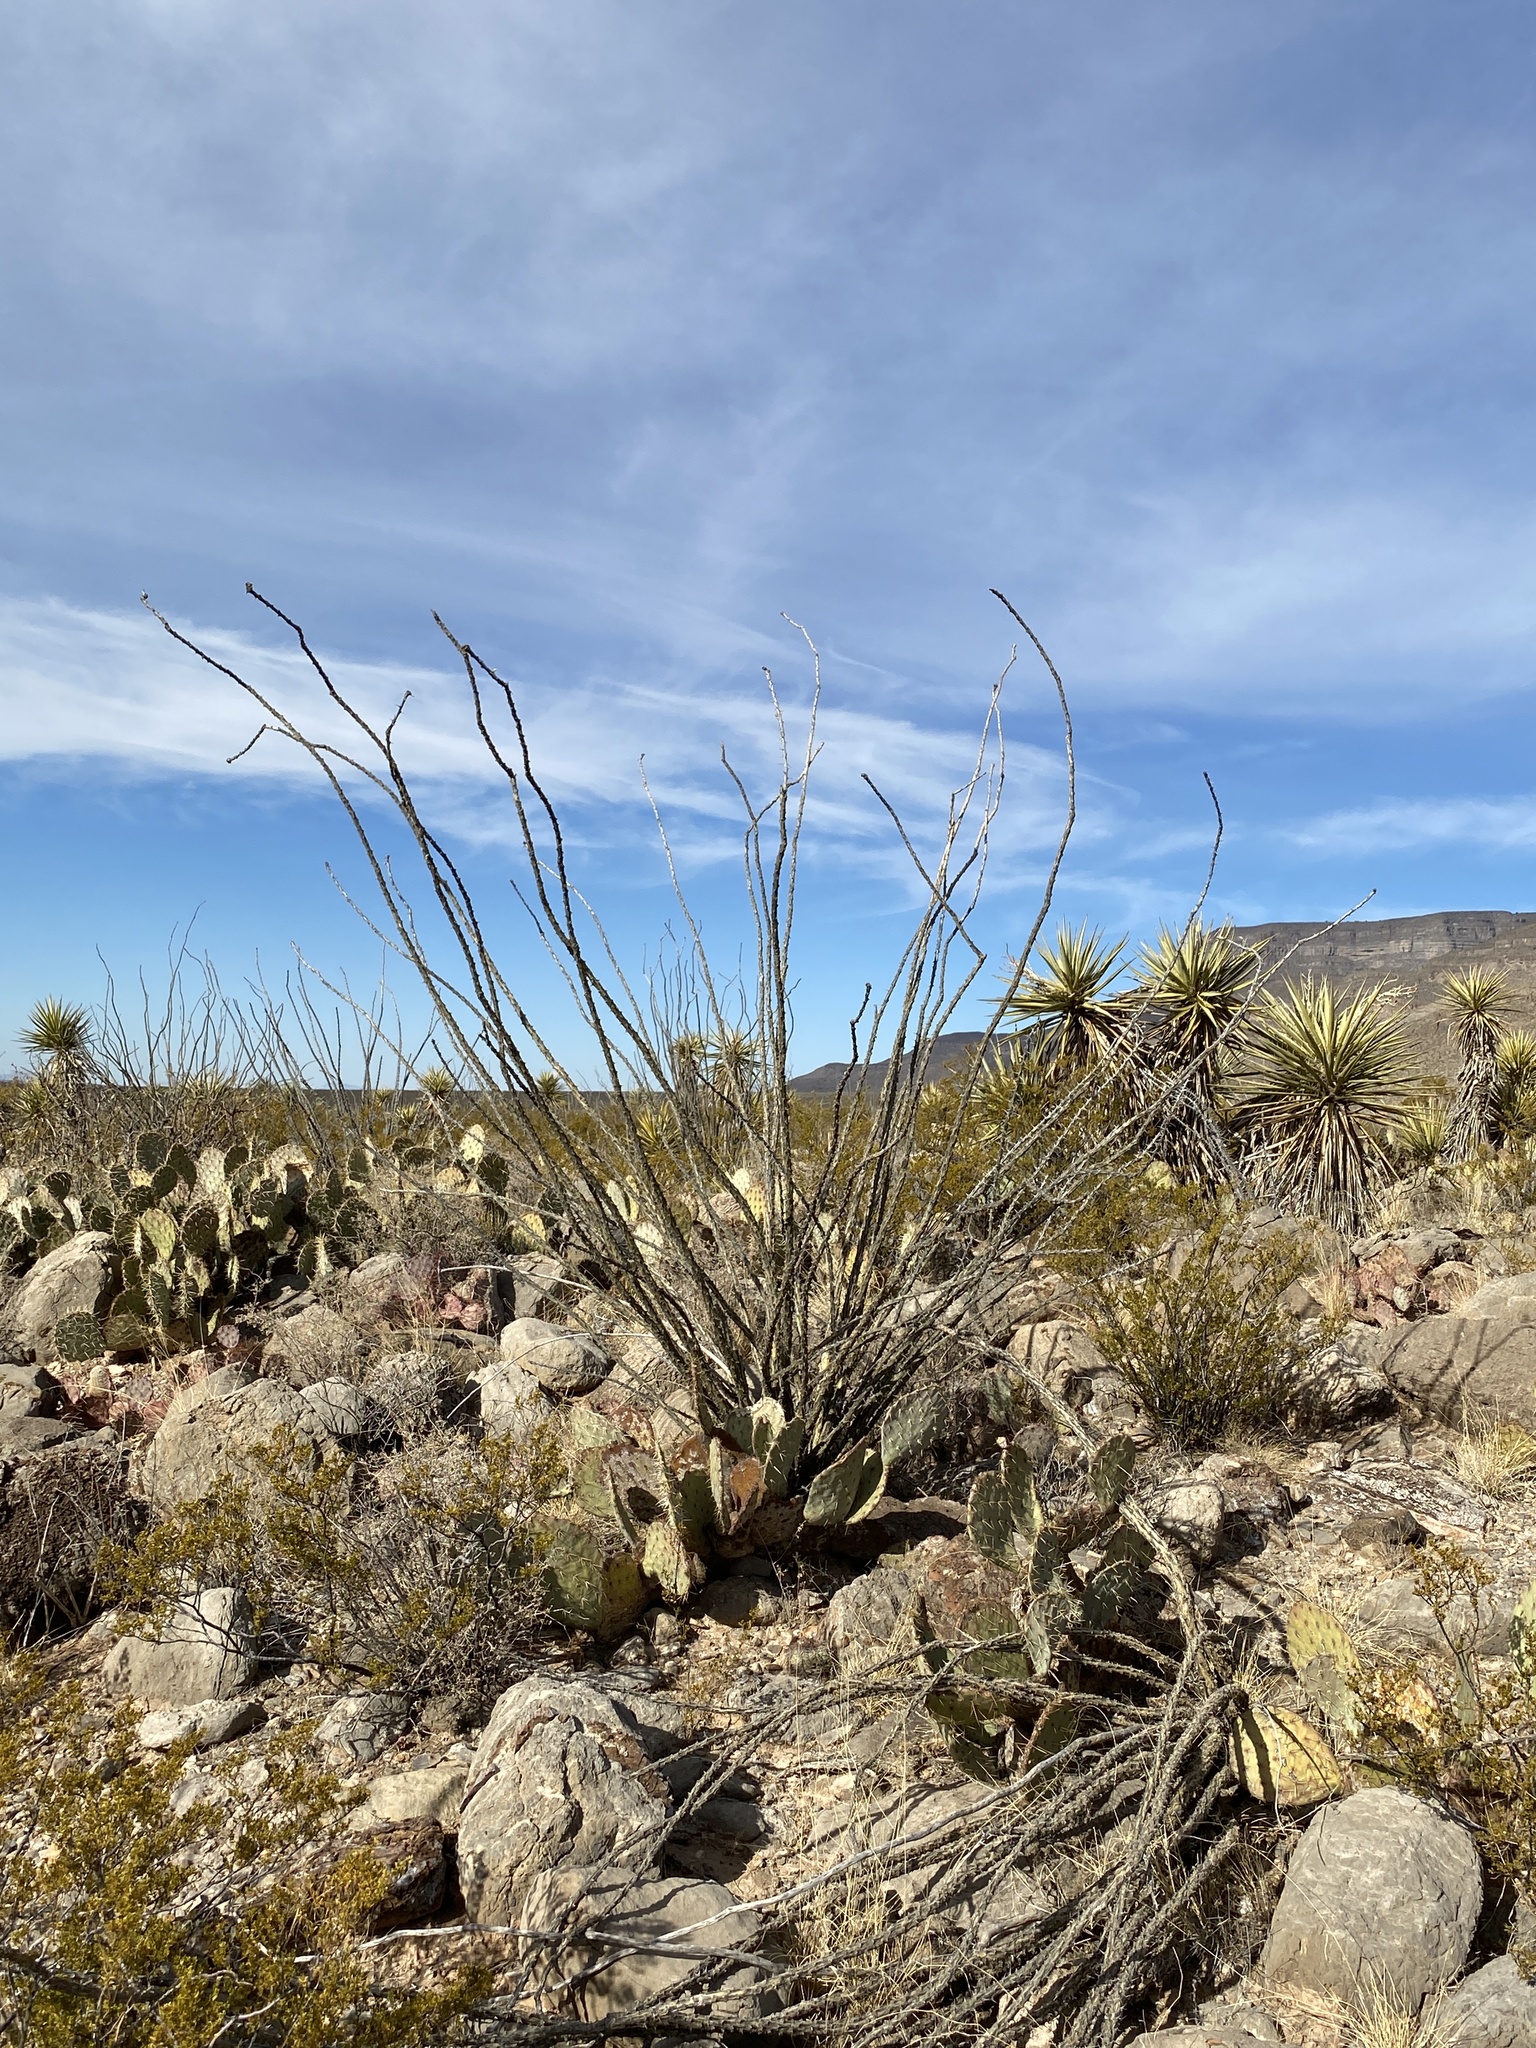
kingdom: Plantae
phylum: Tracheophyta
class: Magnoliopsida
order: Ericales
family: Fouquieriaceae
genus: Fouquieria
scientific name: Fouquieria splendens
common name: Vine-cactus
